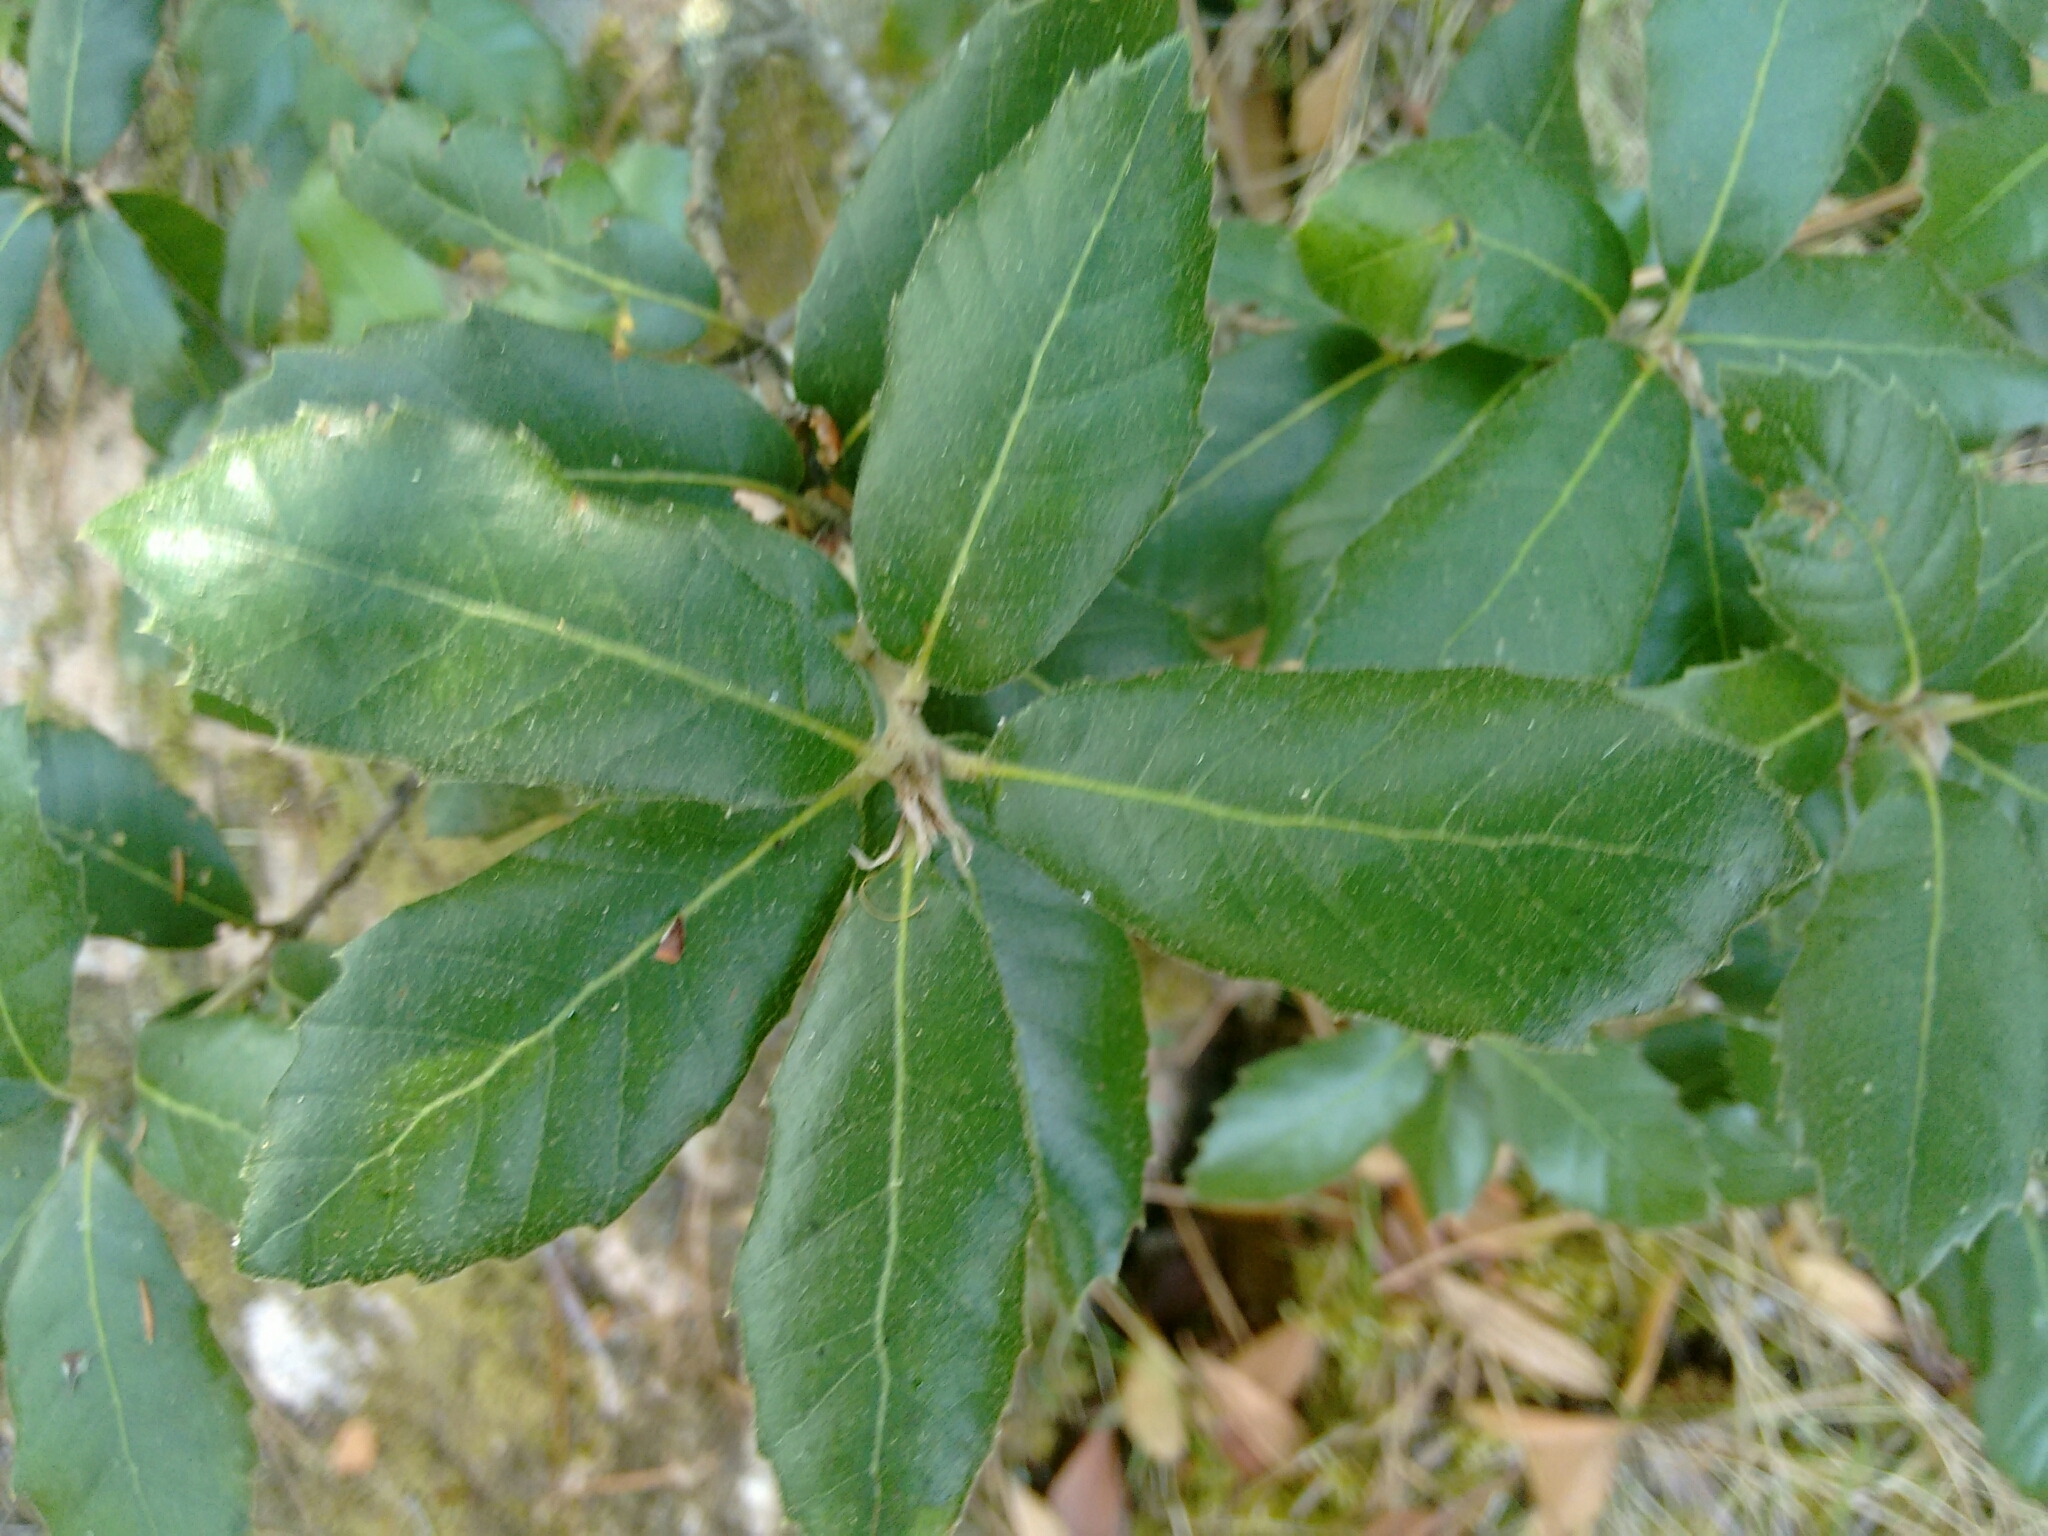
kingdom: Plantae
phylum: Tracheophyta
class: Magnoliopsida
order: Fagales
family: Fagaceae
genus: Quercus
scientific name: Quercus ilex
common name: Evergreen oak
